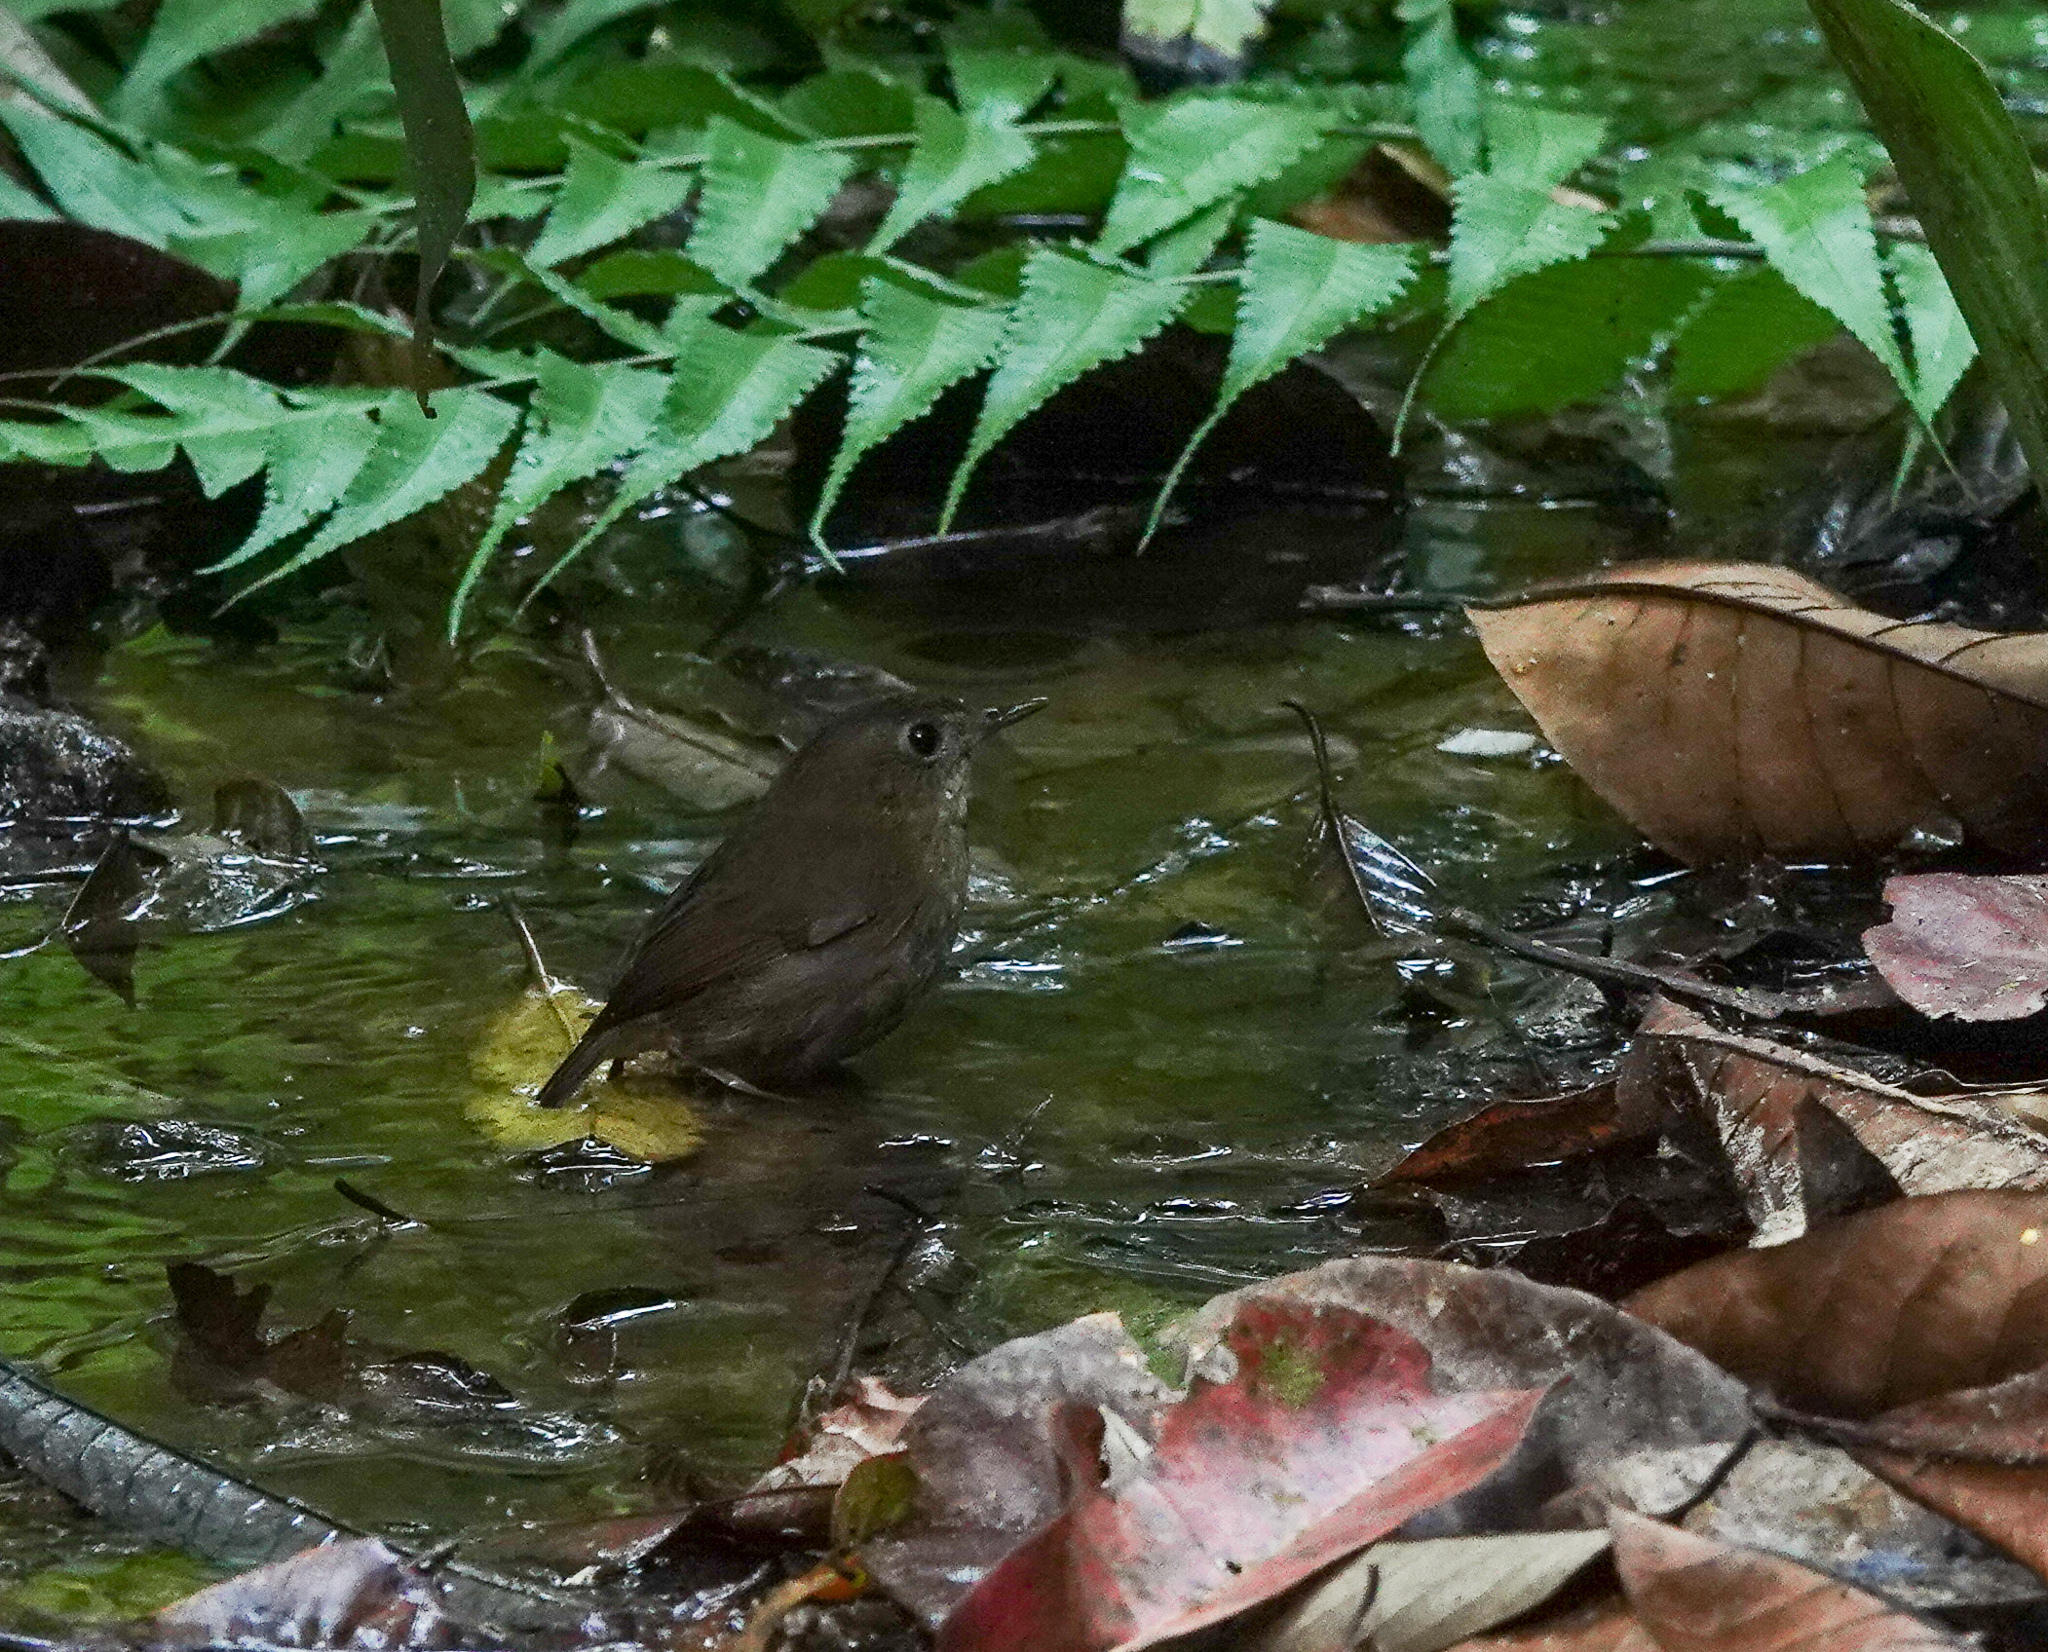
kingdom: Animalia
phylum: Chordata
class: Aves
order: Passeriformes
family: Muscicapidae
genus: Brachypteryx
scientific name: Brachypteryx leucophris
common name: Lesser shortwing
